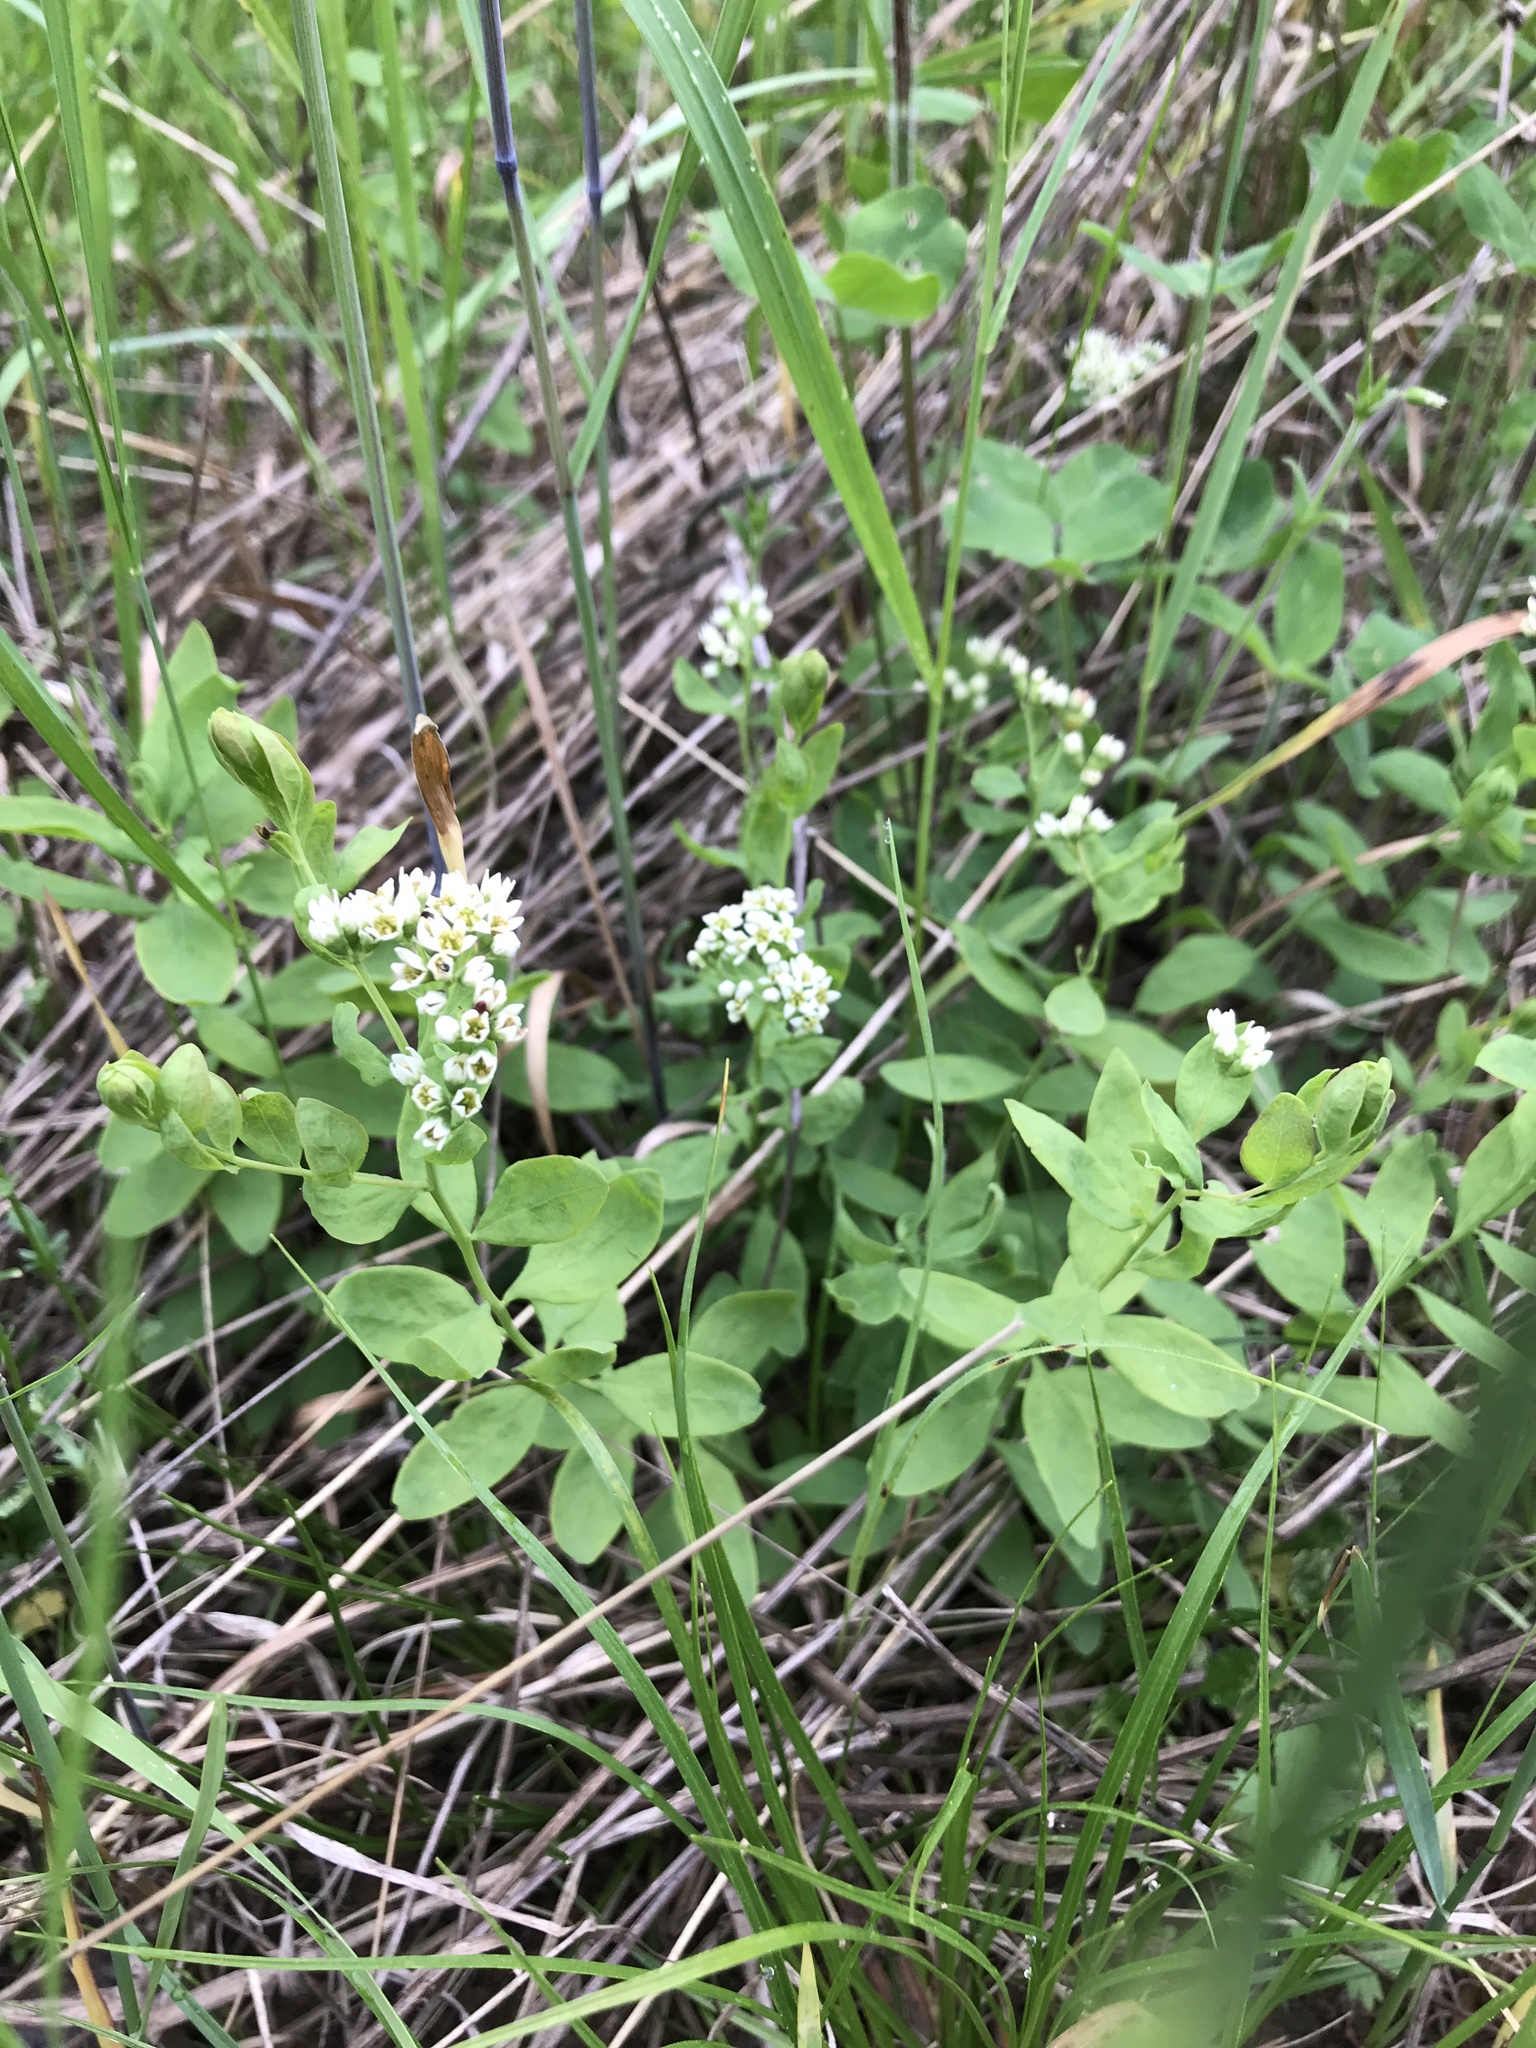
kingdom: Plantae
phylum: Tracheophyta
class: Magnoliopsida
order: Santalales
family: Comandraceae
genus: Comandra
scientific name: Comandra umbellata
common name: Bastard toadflax
